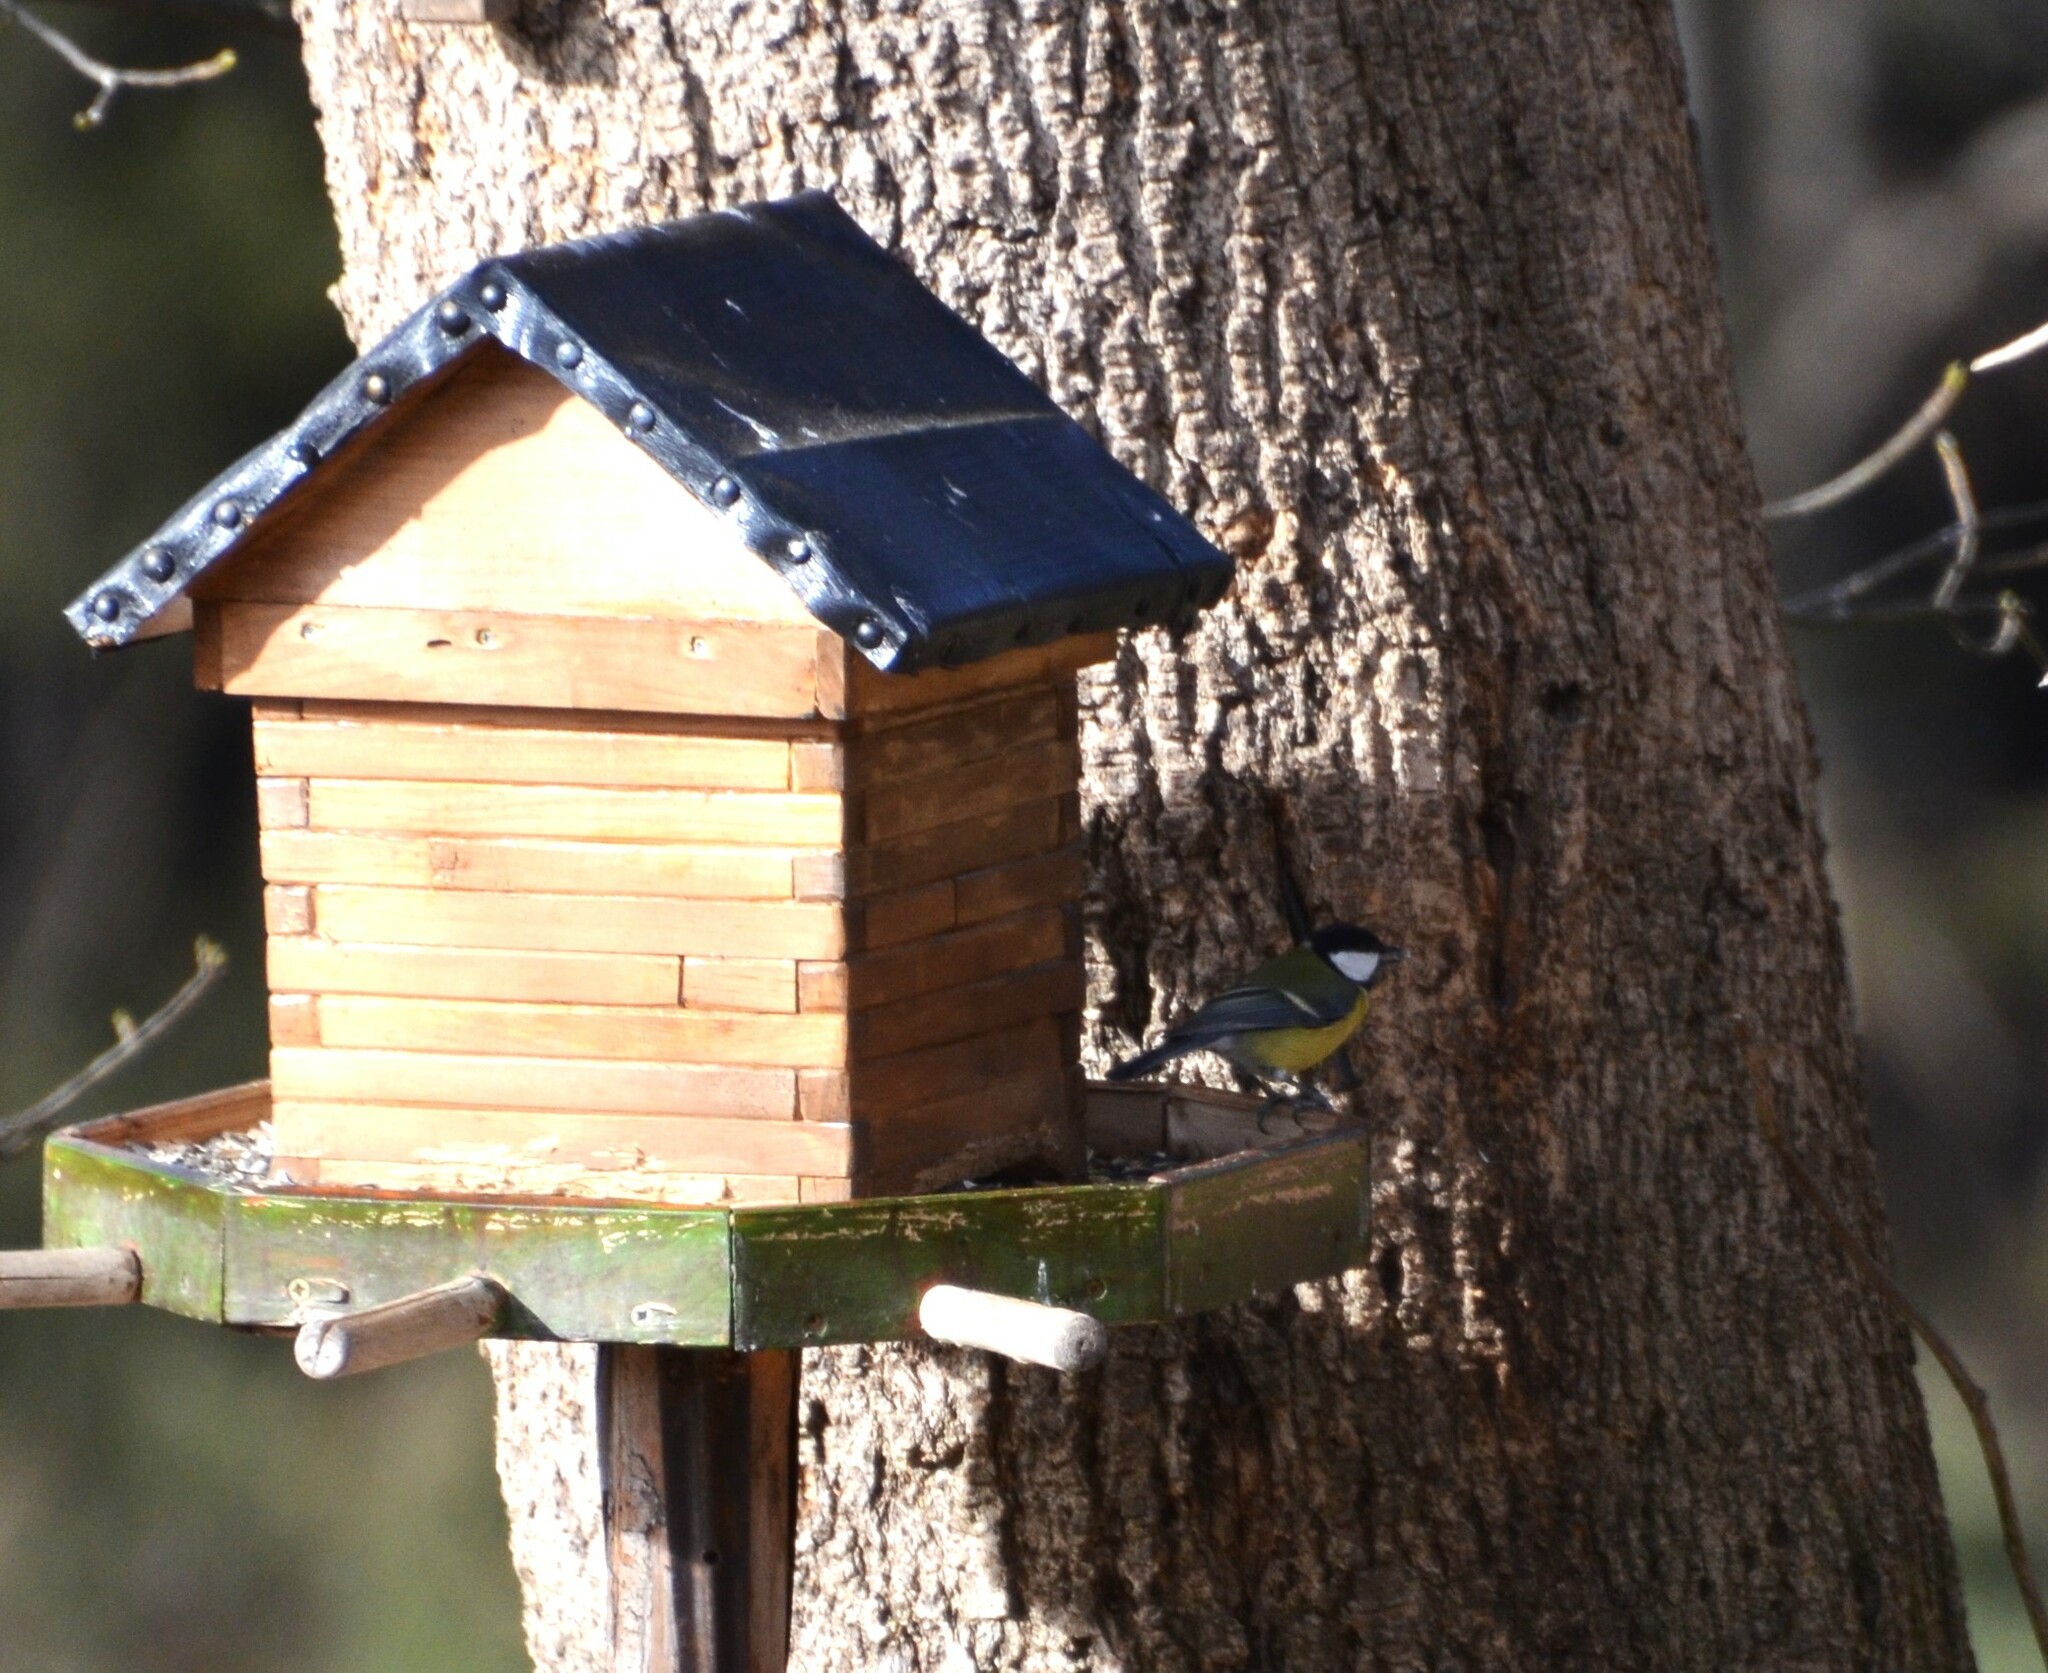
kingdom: Animalia
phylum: Chordata
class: Aves
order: Passeriformes
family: Paridae
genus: Parus
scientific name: Parus major
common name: Great tit
